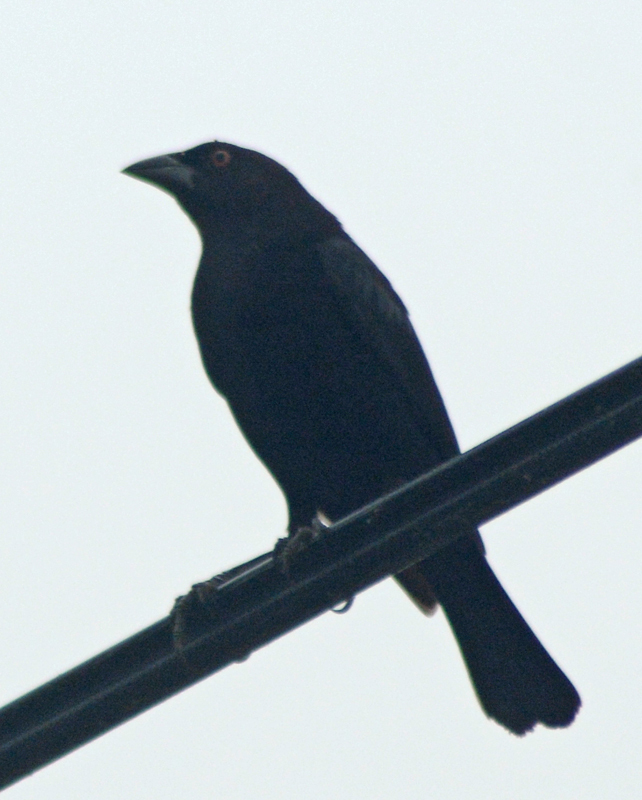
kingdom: Animalia
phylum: Chordata
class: Aves
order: Passeriformes
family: Icteridae
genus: Molothrus
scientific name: Molothrus aeneus
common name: Bronzed cowbird
